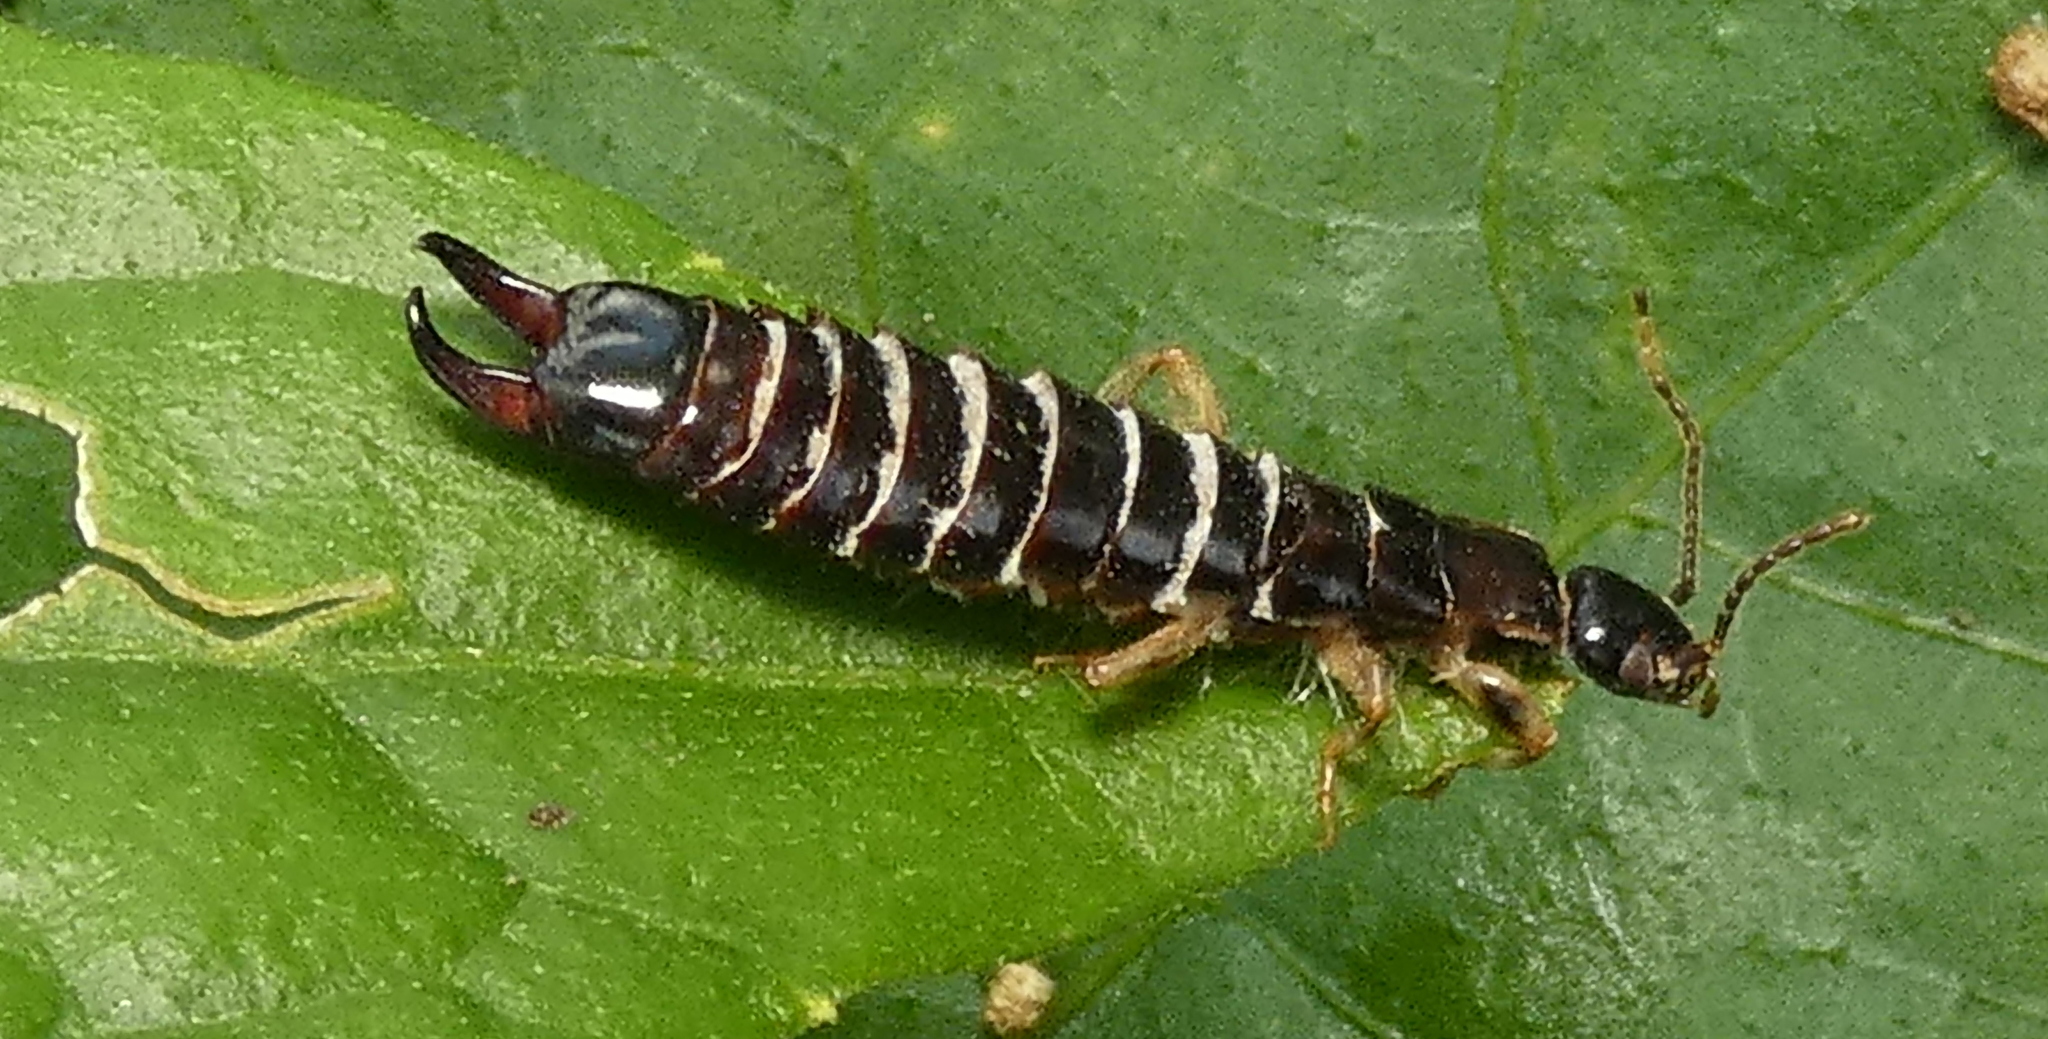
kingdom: Animalia
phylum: Arthropoda
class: Insecta
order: Dermaptera
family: Anisolabididae
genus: Euborellia
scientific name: Euborellia janeirensis
